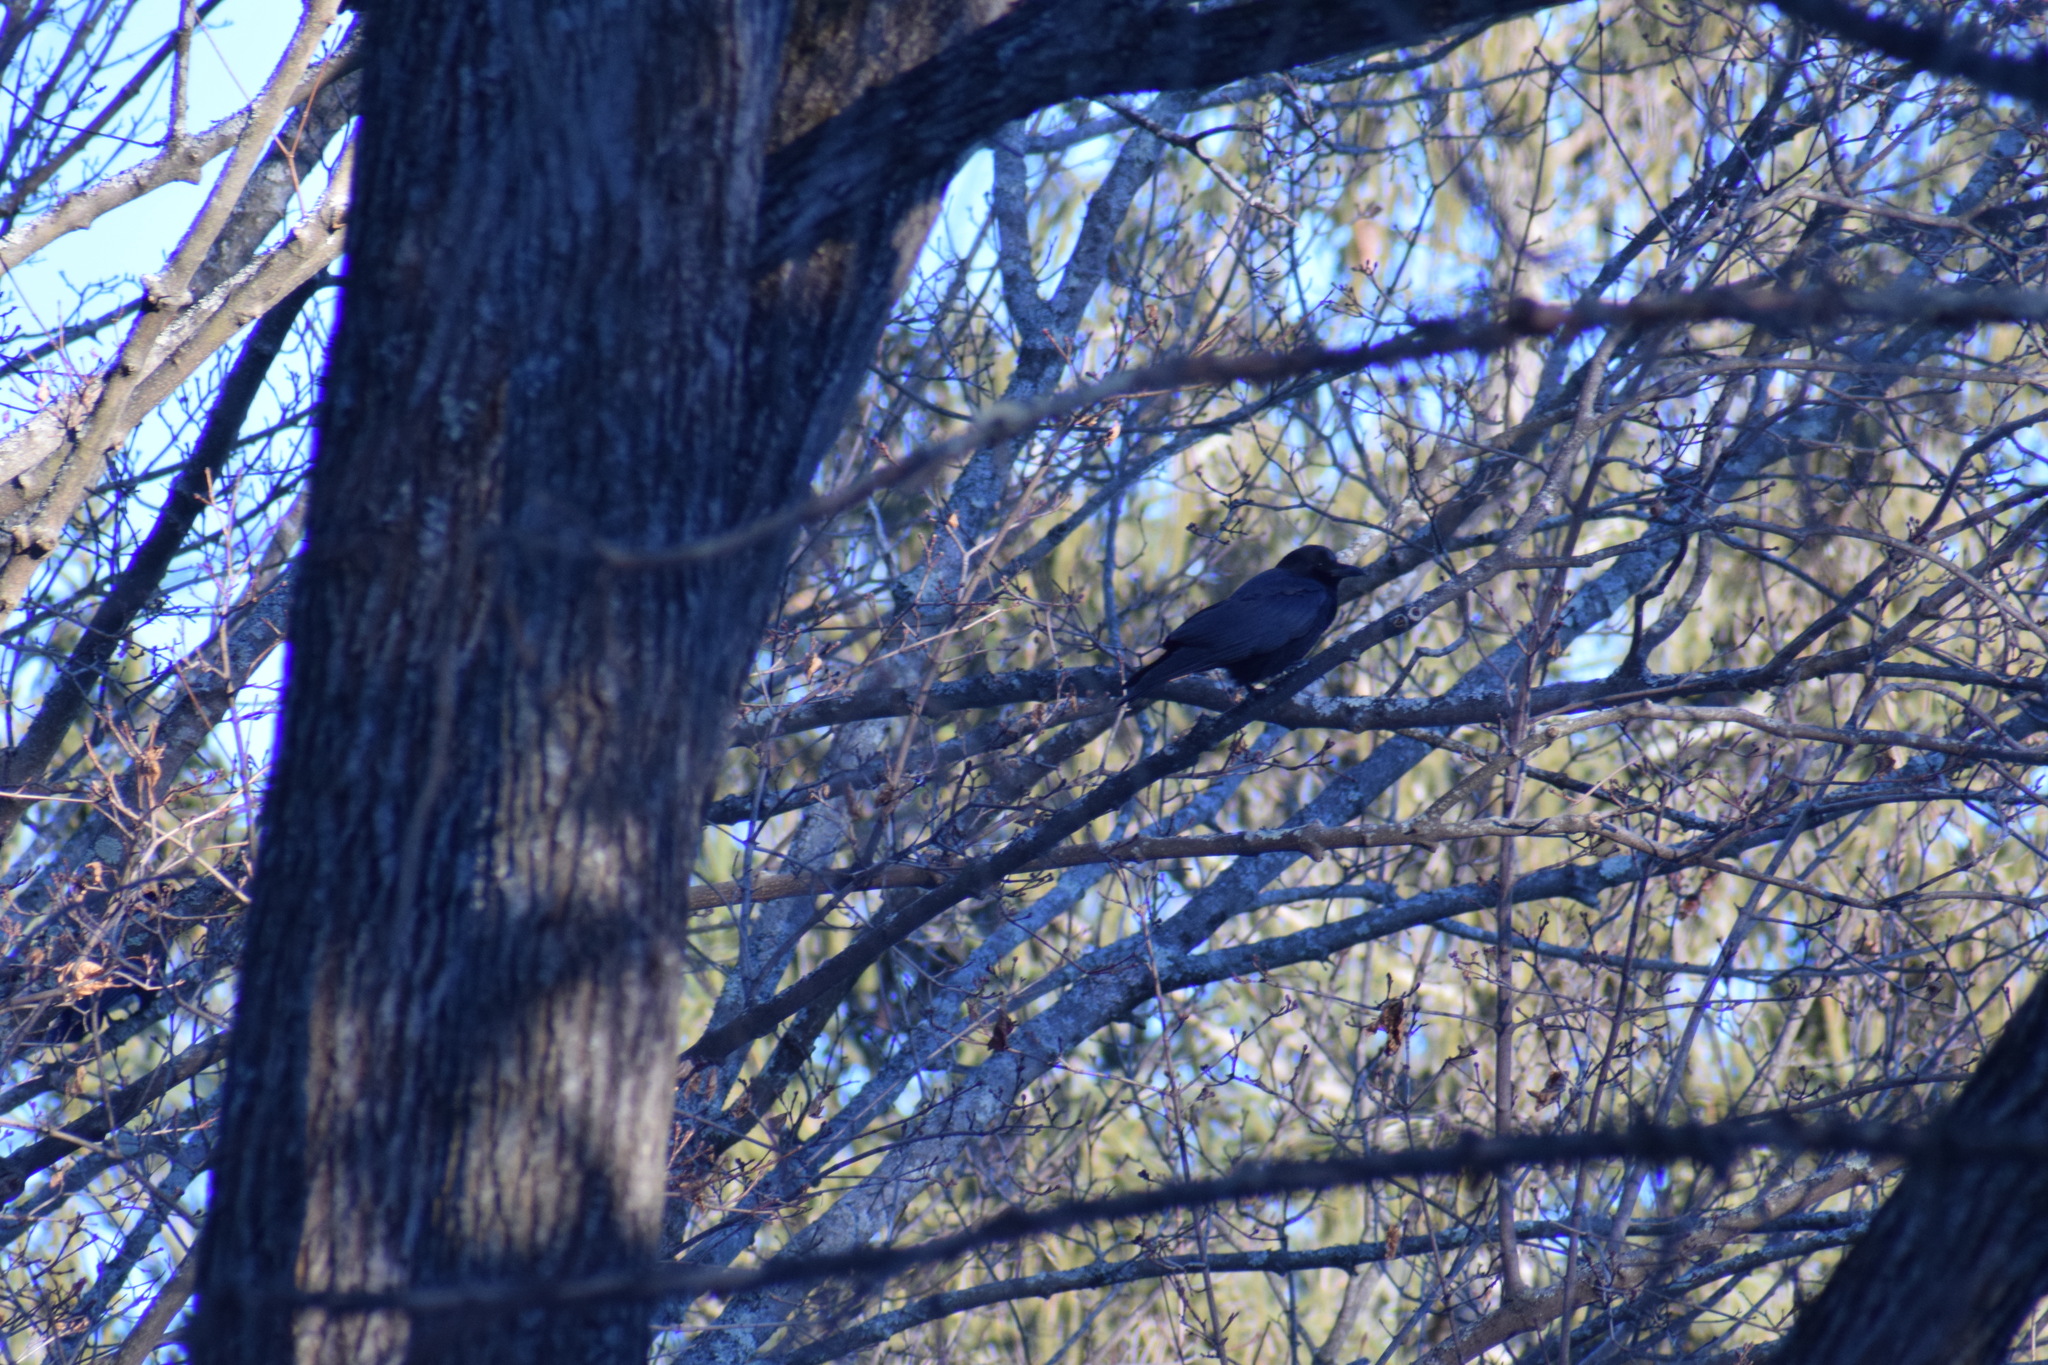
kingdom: Animalia
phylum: Chordata
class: Aves
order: Passeriformes
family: Corvidae
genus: Corvus
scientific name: Corvus brachyrhynchos
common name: American crow
